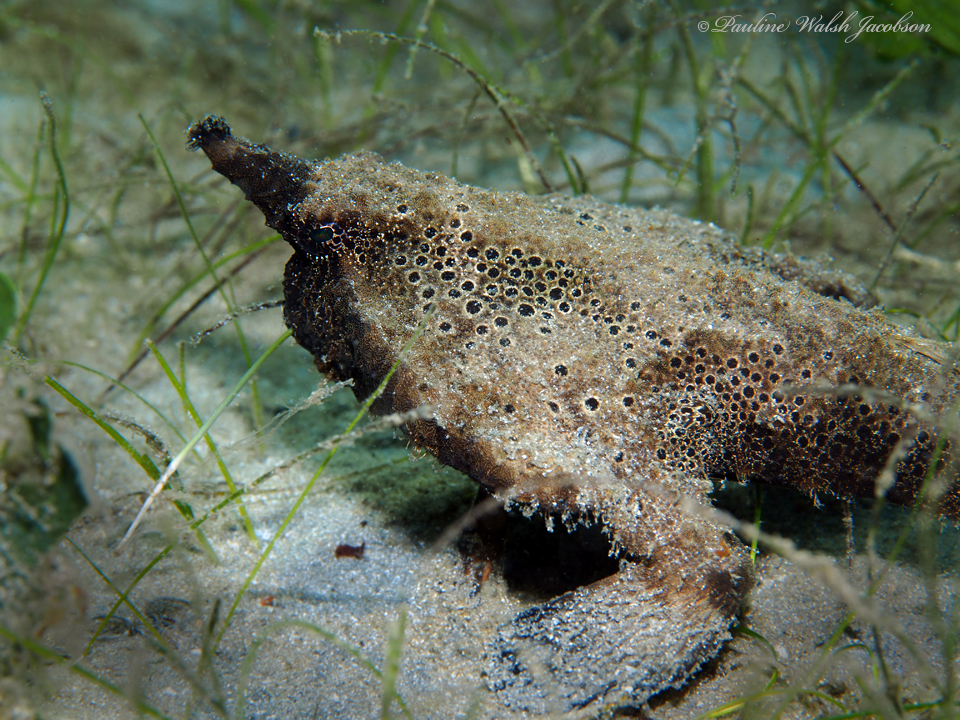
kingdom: Animalia
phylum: Chordata
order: Lophiiformes
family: Ogcocephalidae
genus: Ogcocephalus
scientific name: Ogcocephalus nasutus
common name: Shortnose batfish
